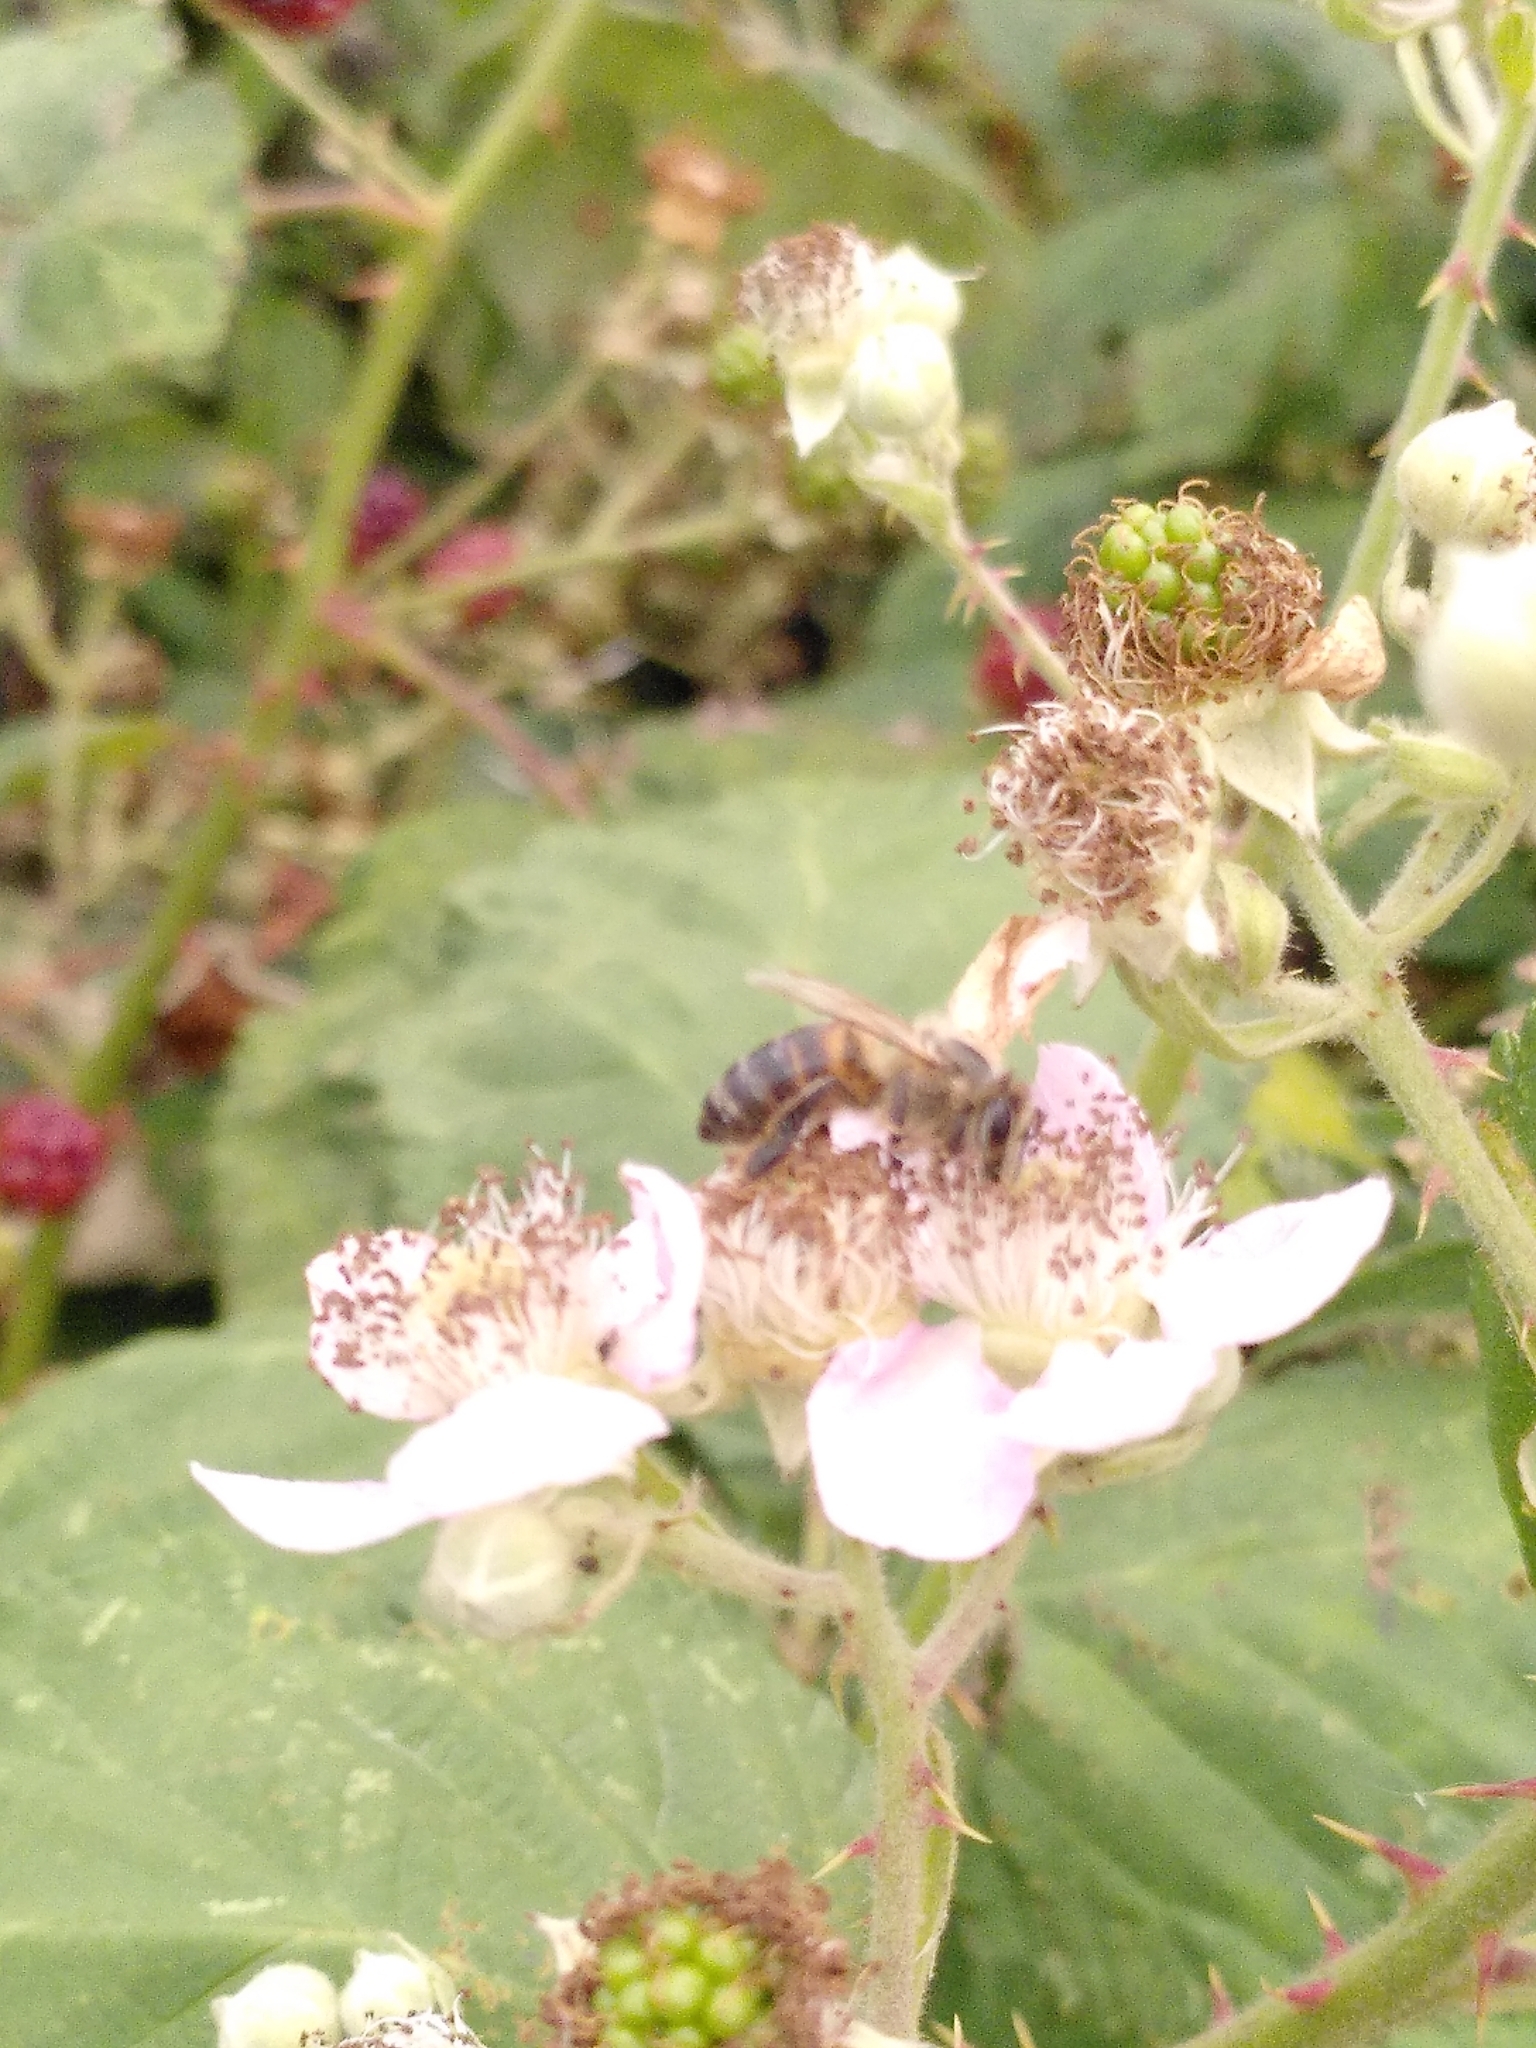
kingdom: Animalia
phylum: Arthropoda
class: Insecta
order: Hymenoptera
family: Apidae
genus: Apis
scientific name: Apis mellifera
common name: Honey bee
